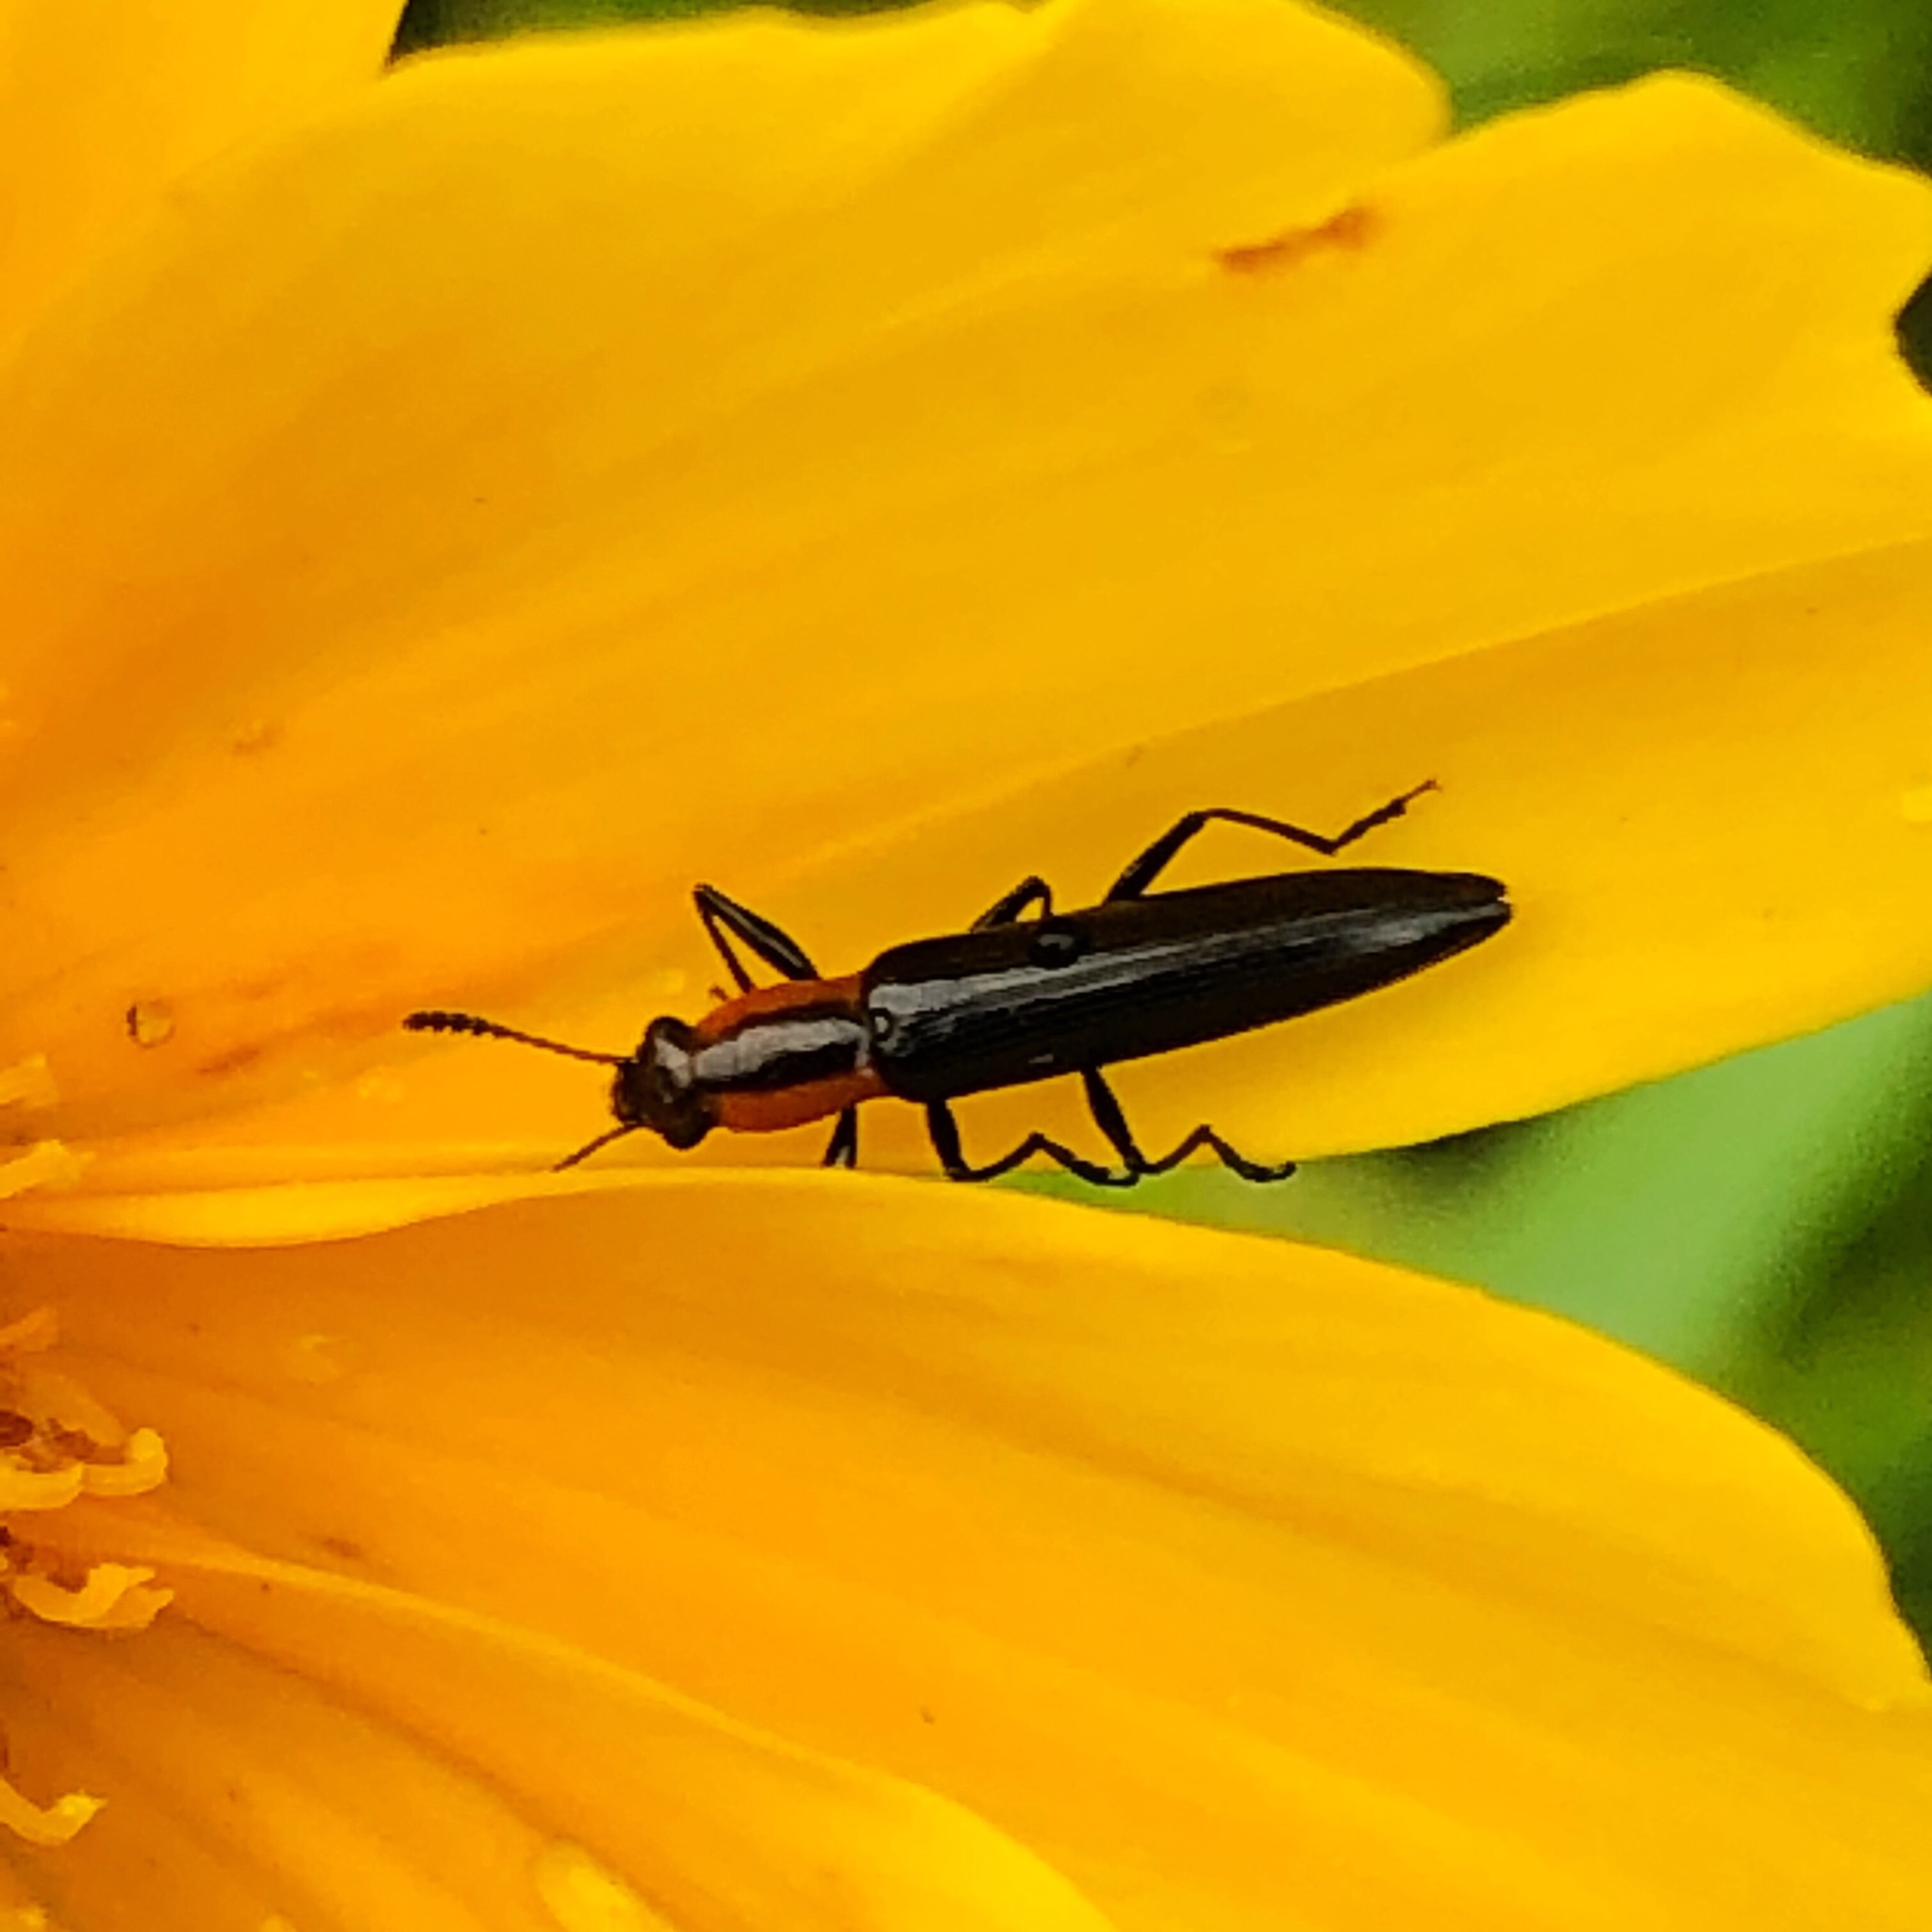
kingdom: Animalia
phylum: Arthropoda
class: Insecta
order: Coleoptera
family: Erotylidae
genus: Acropteroxys
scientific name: Acropteroxys gracilis
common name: Slender lizard beetle
